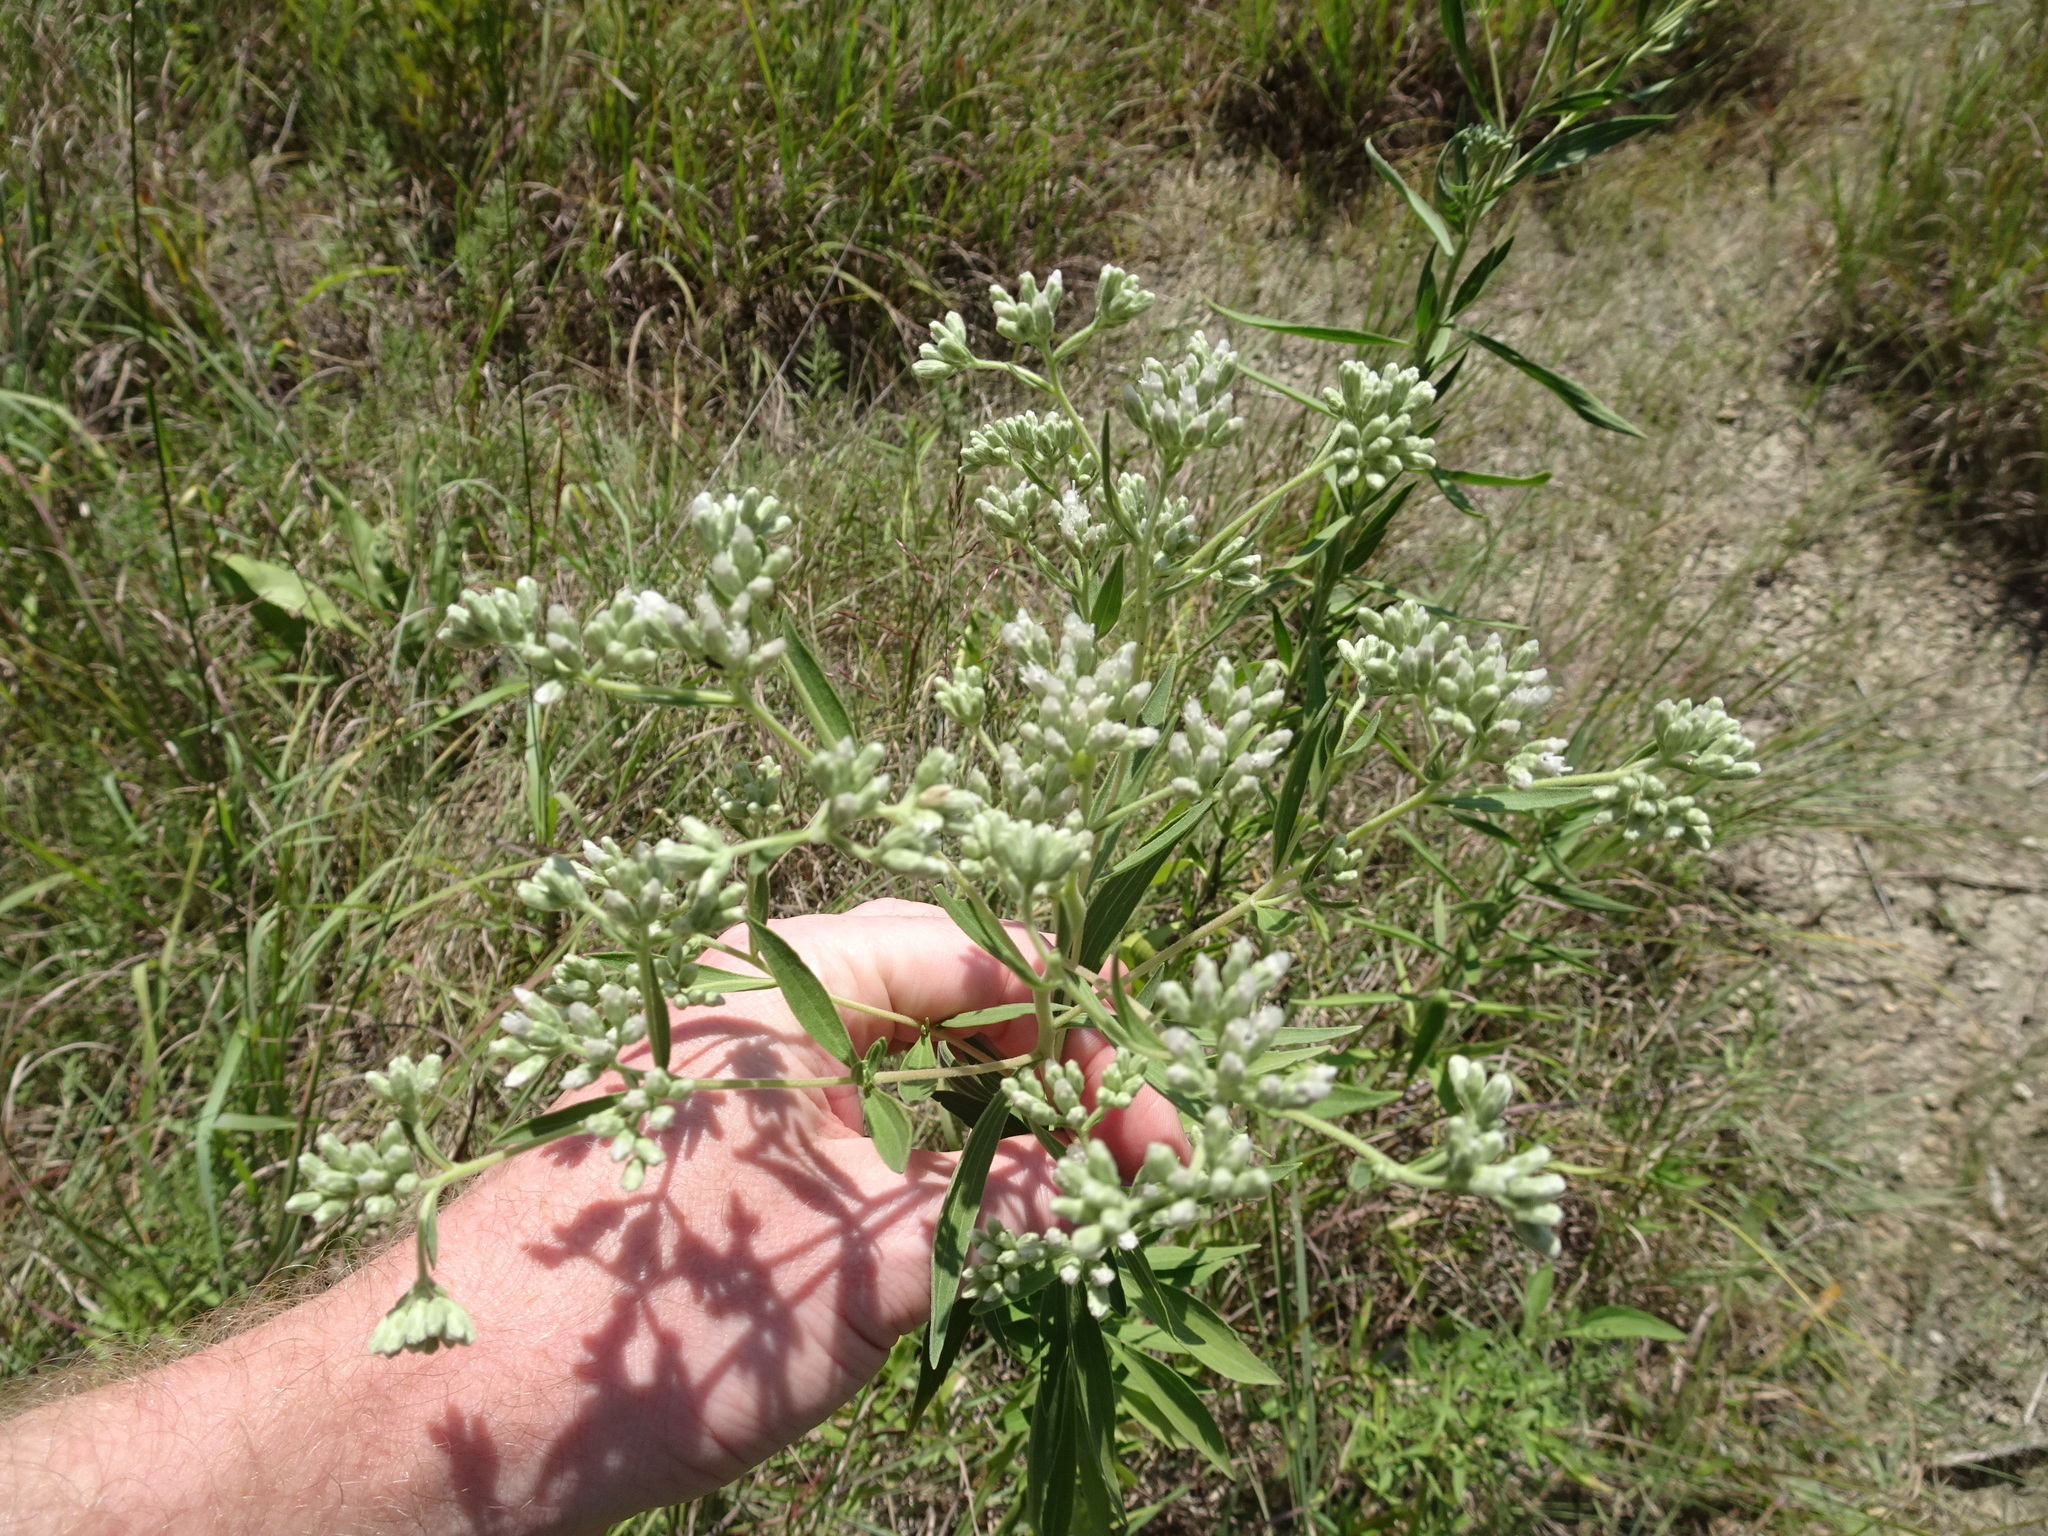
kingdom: Plantae
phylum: Tracheophyta
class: Magnoliopsida
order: Asterales
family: Asteraceae
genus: Eupatorium
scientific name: Eupatorium altissimum
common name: Tall thoroughwort
